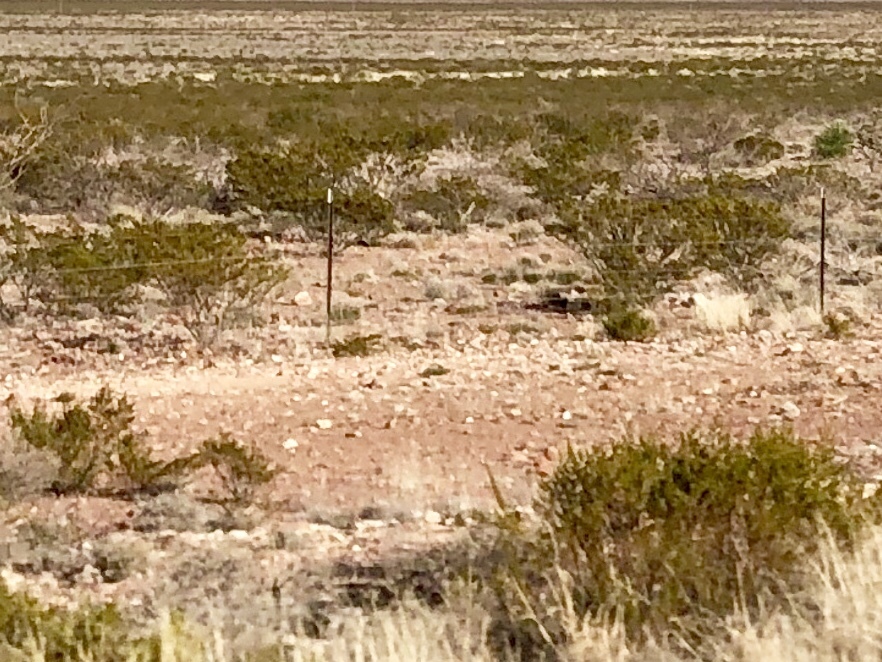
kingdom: Plantae
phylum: Tracheophyta
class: Magnoliopsida
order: Zygophyllales
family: Zygophyllaceae
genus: Larrea
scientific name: Larrea tridentata
